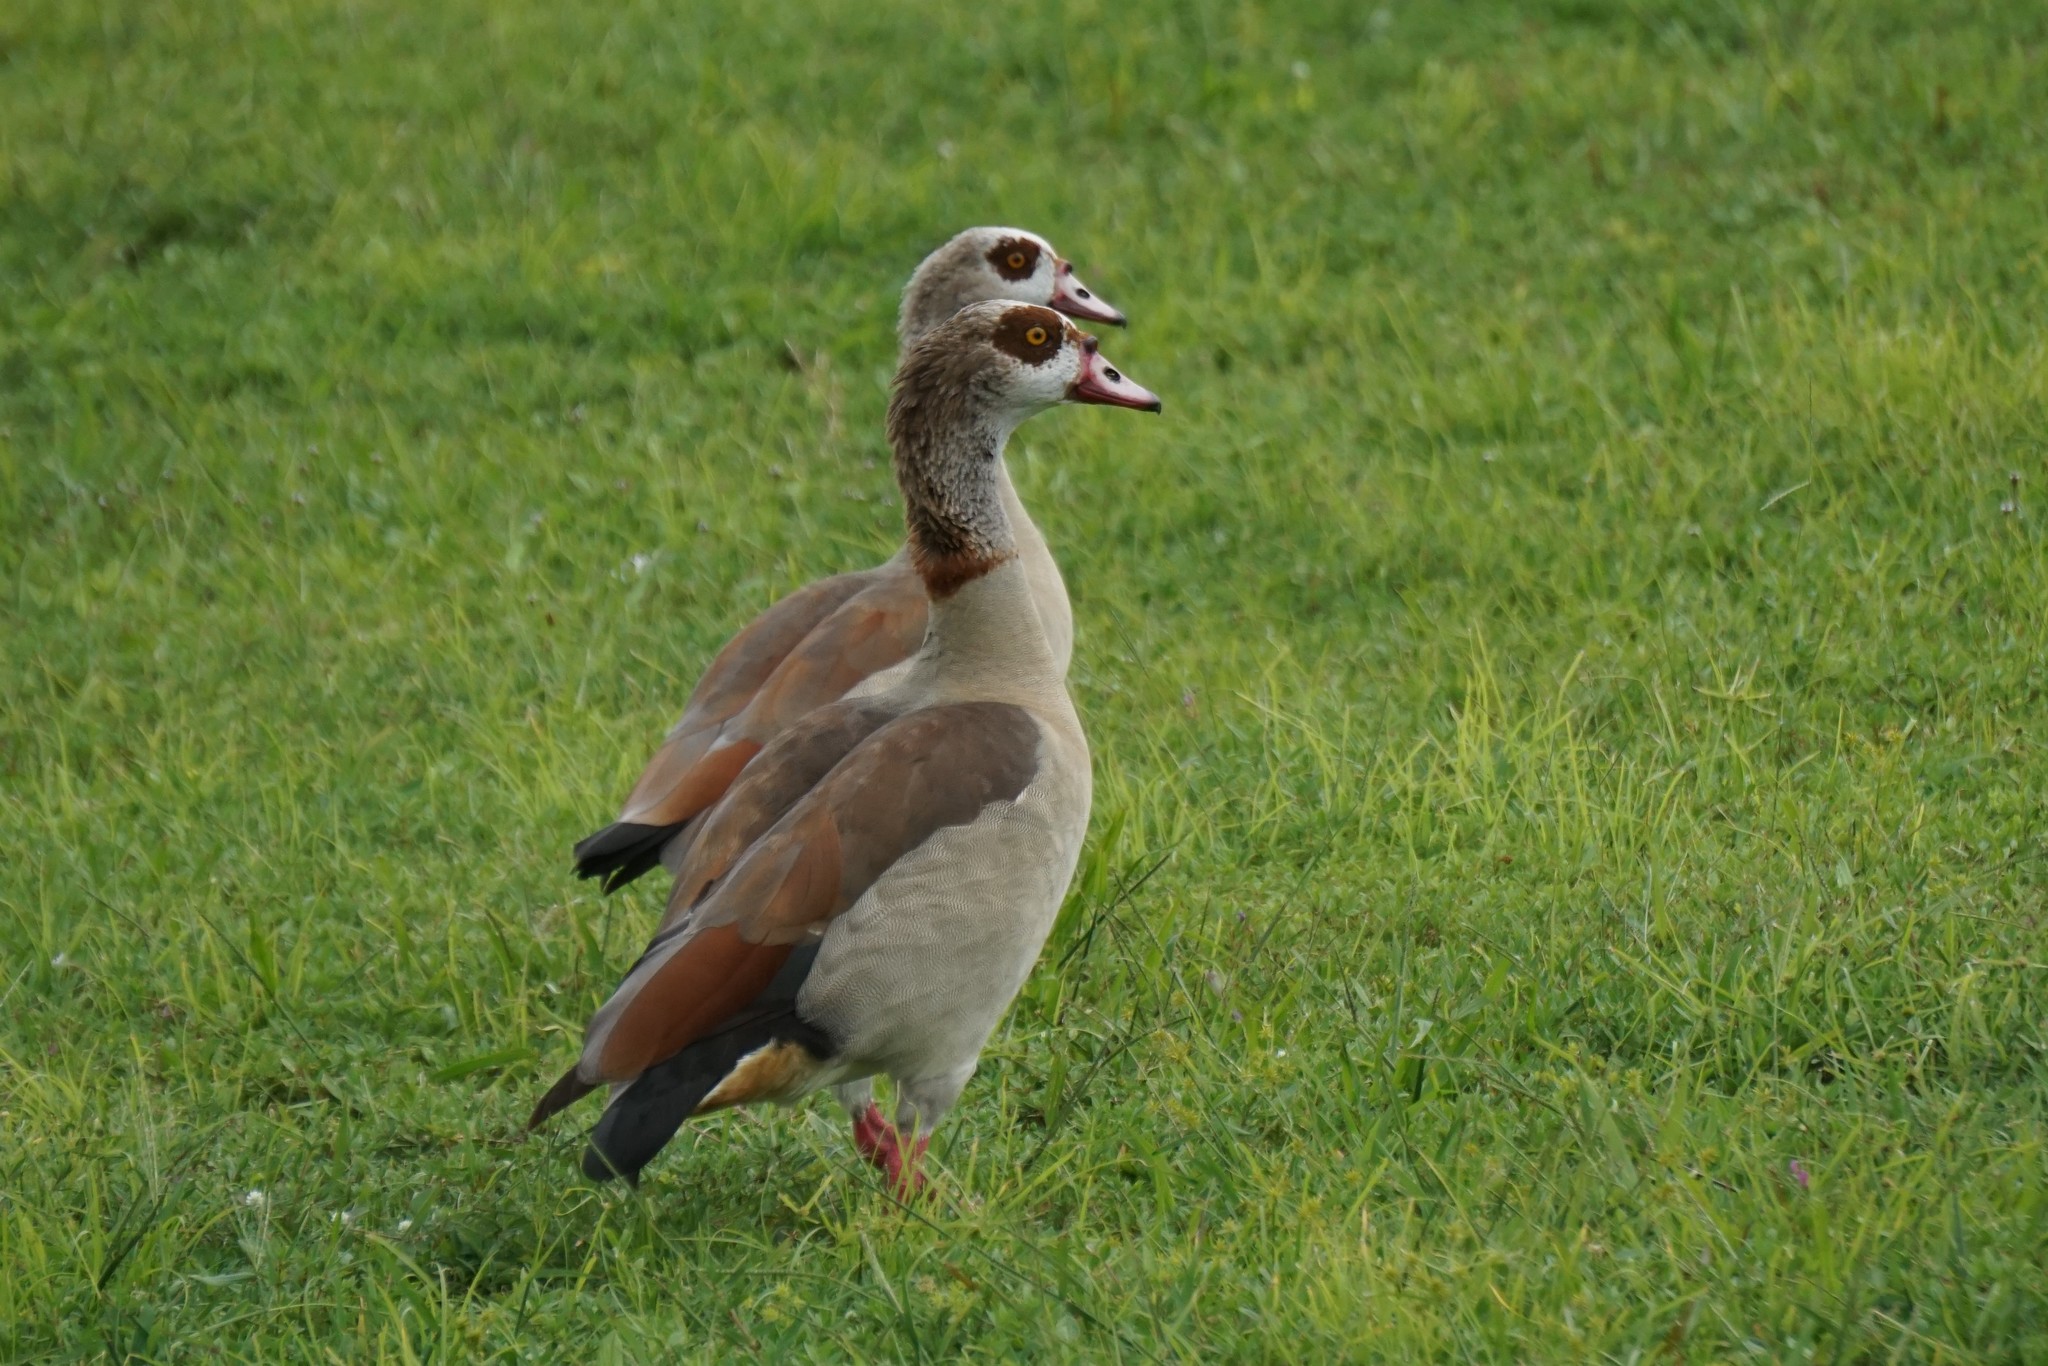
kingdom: Animalia
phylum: Chordata
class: Aves
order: Anseriformes
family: Anatidae
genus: Alopochen
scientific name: Alopochen aegyptiaca
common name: Egyptian goose
